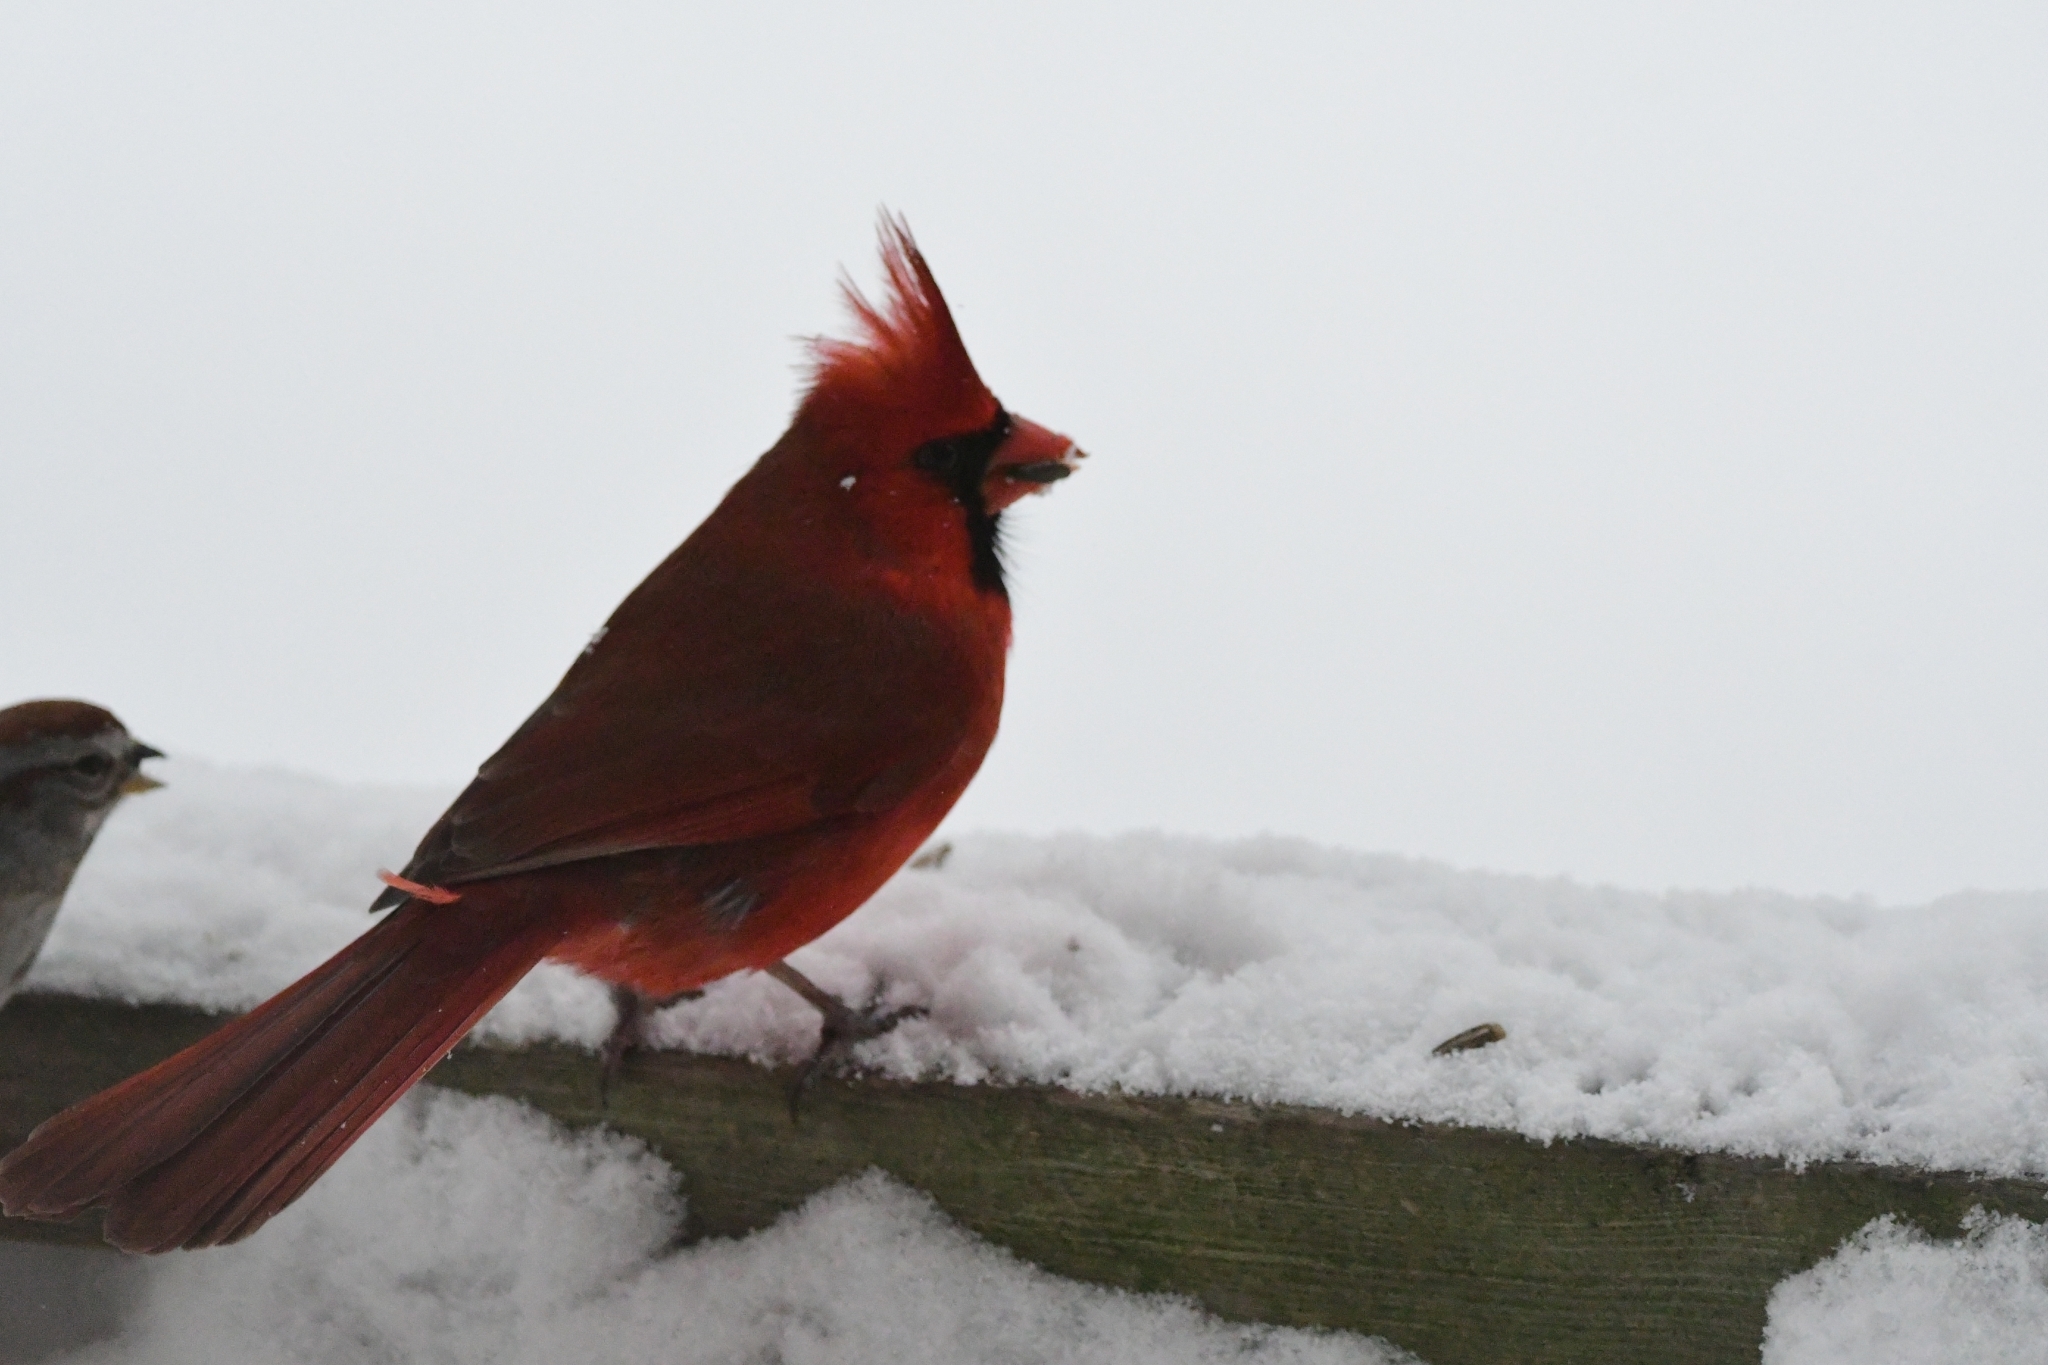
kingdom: Animalia
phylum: Chordata
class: Aves
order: Passeriformes
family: Cardinalidae
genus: Cardinalis
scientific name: Cardinalis cardinalis
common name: Northern cardinal
